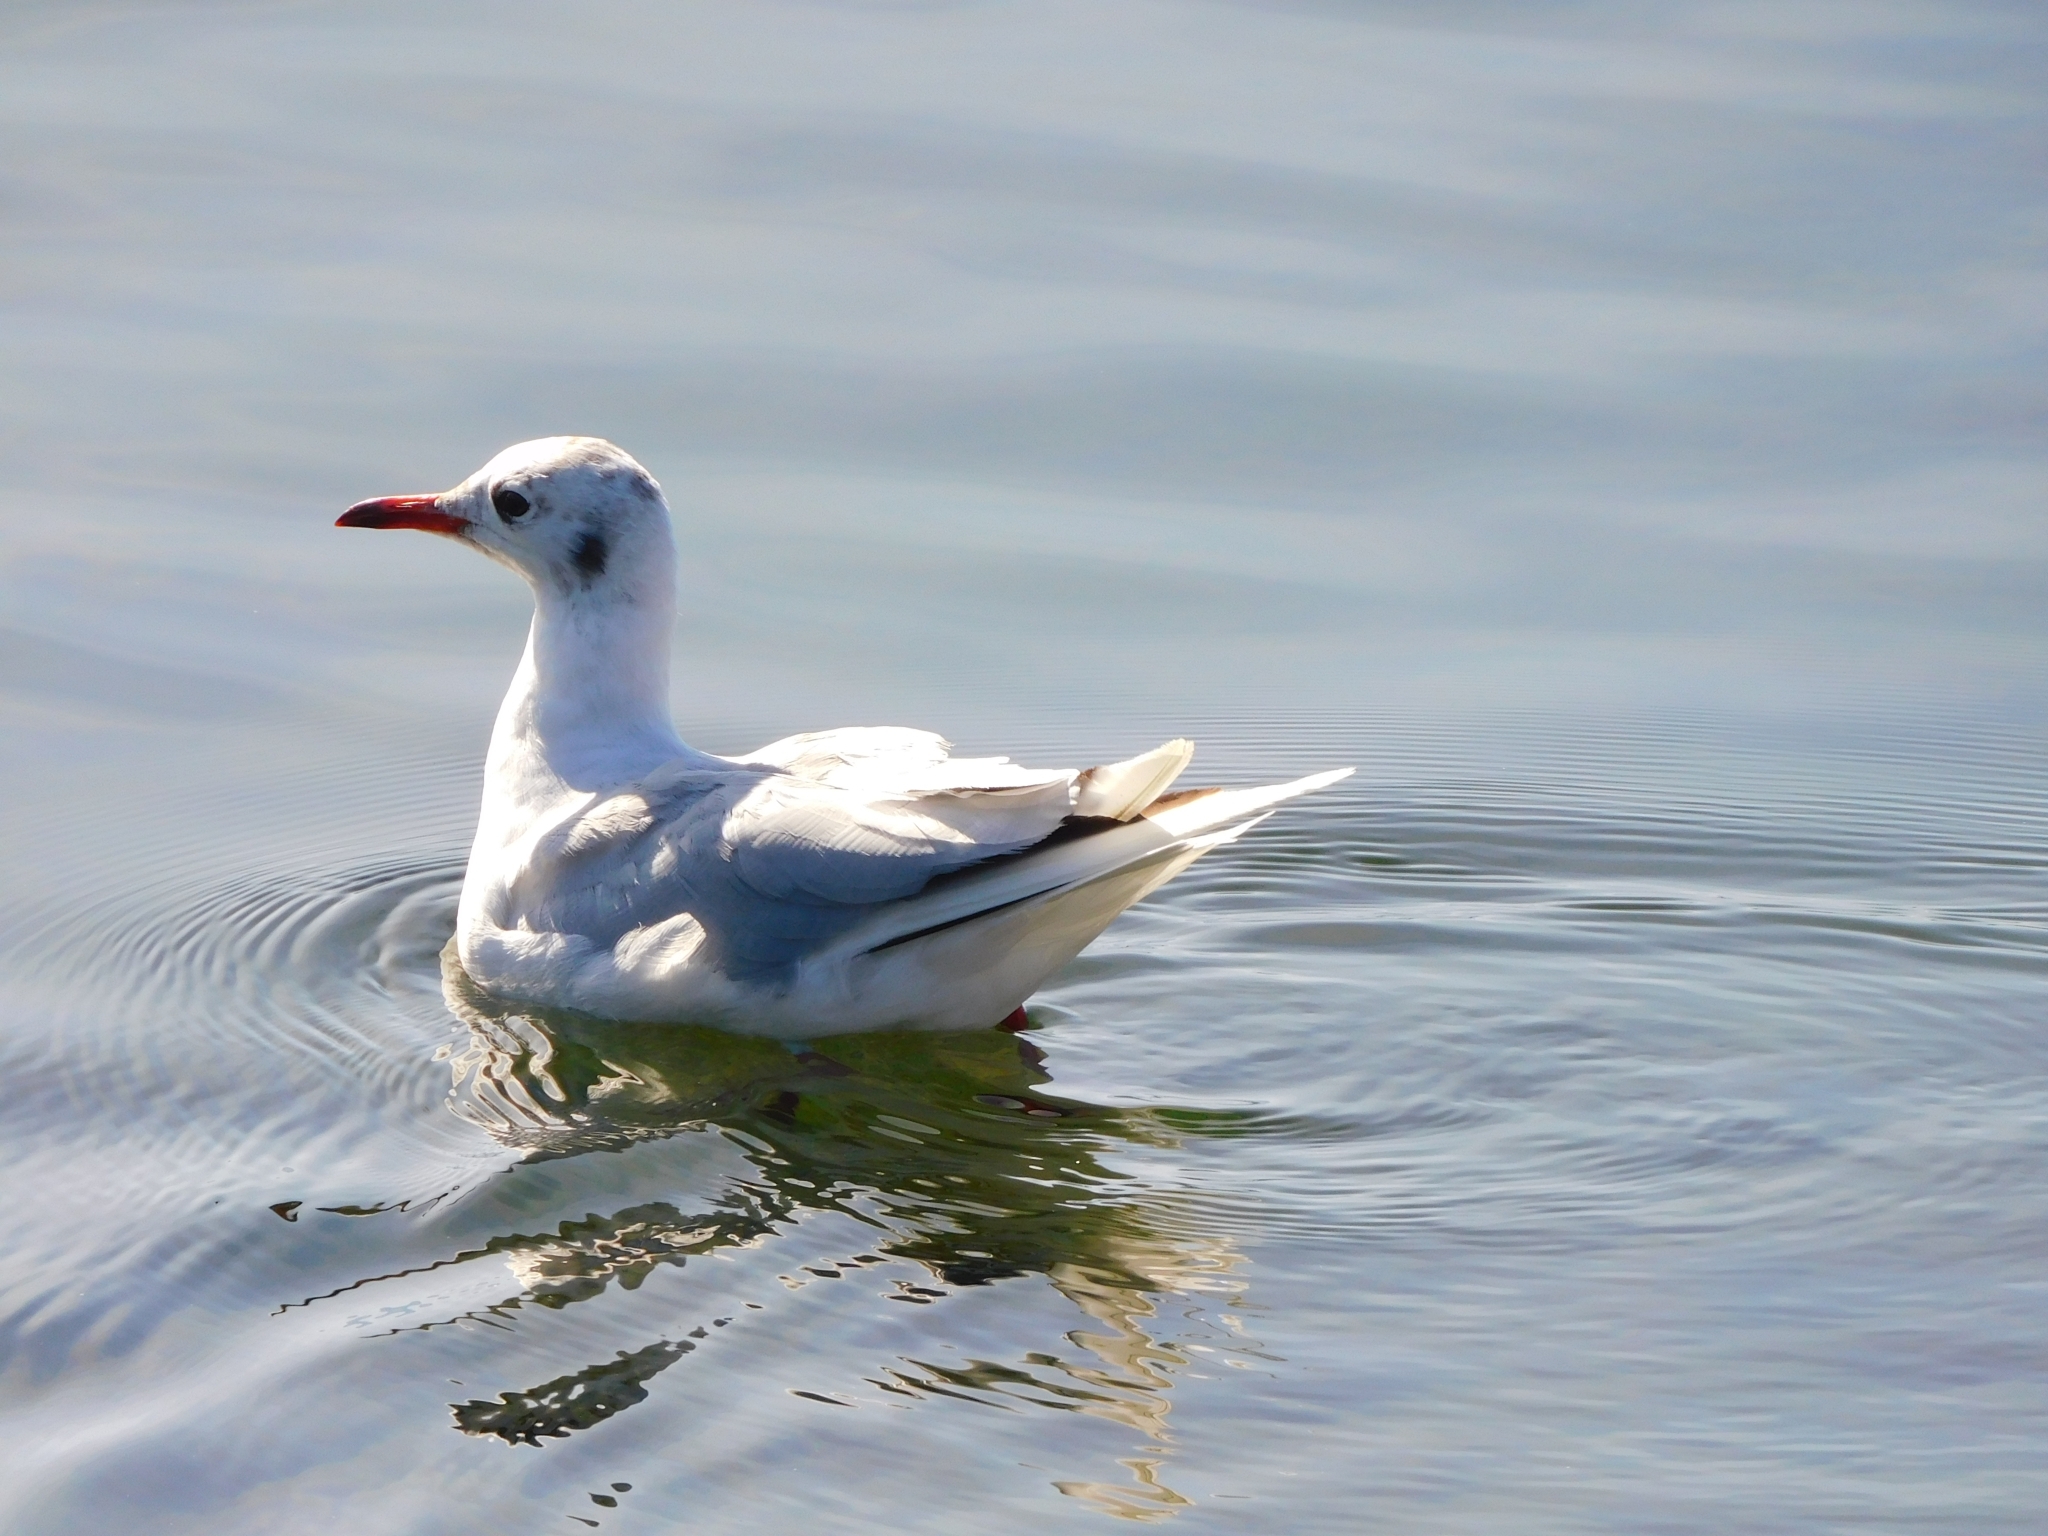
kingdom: Animalia
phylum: Chordata
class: Aves
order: Charadriiformes
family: Laridae
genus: Chroicocephalus
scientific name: Chroicocephalus maculipennis
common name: Brown-hooded gull
